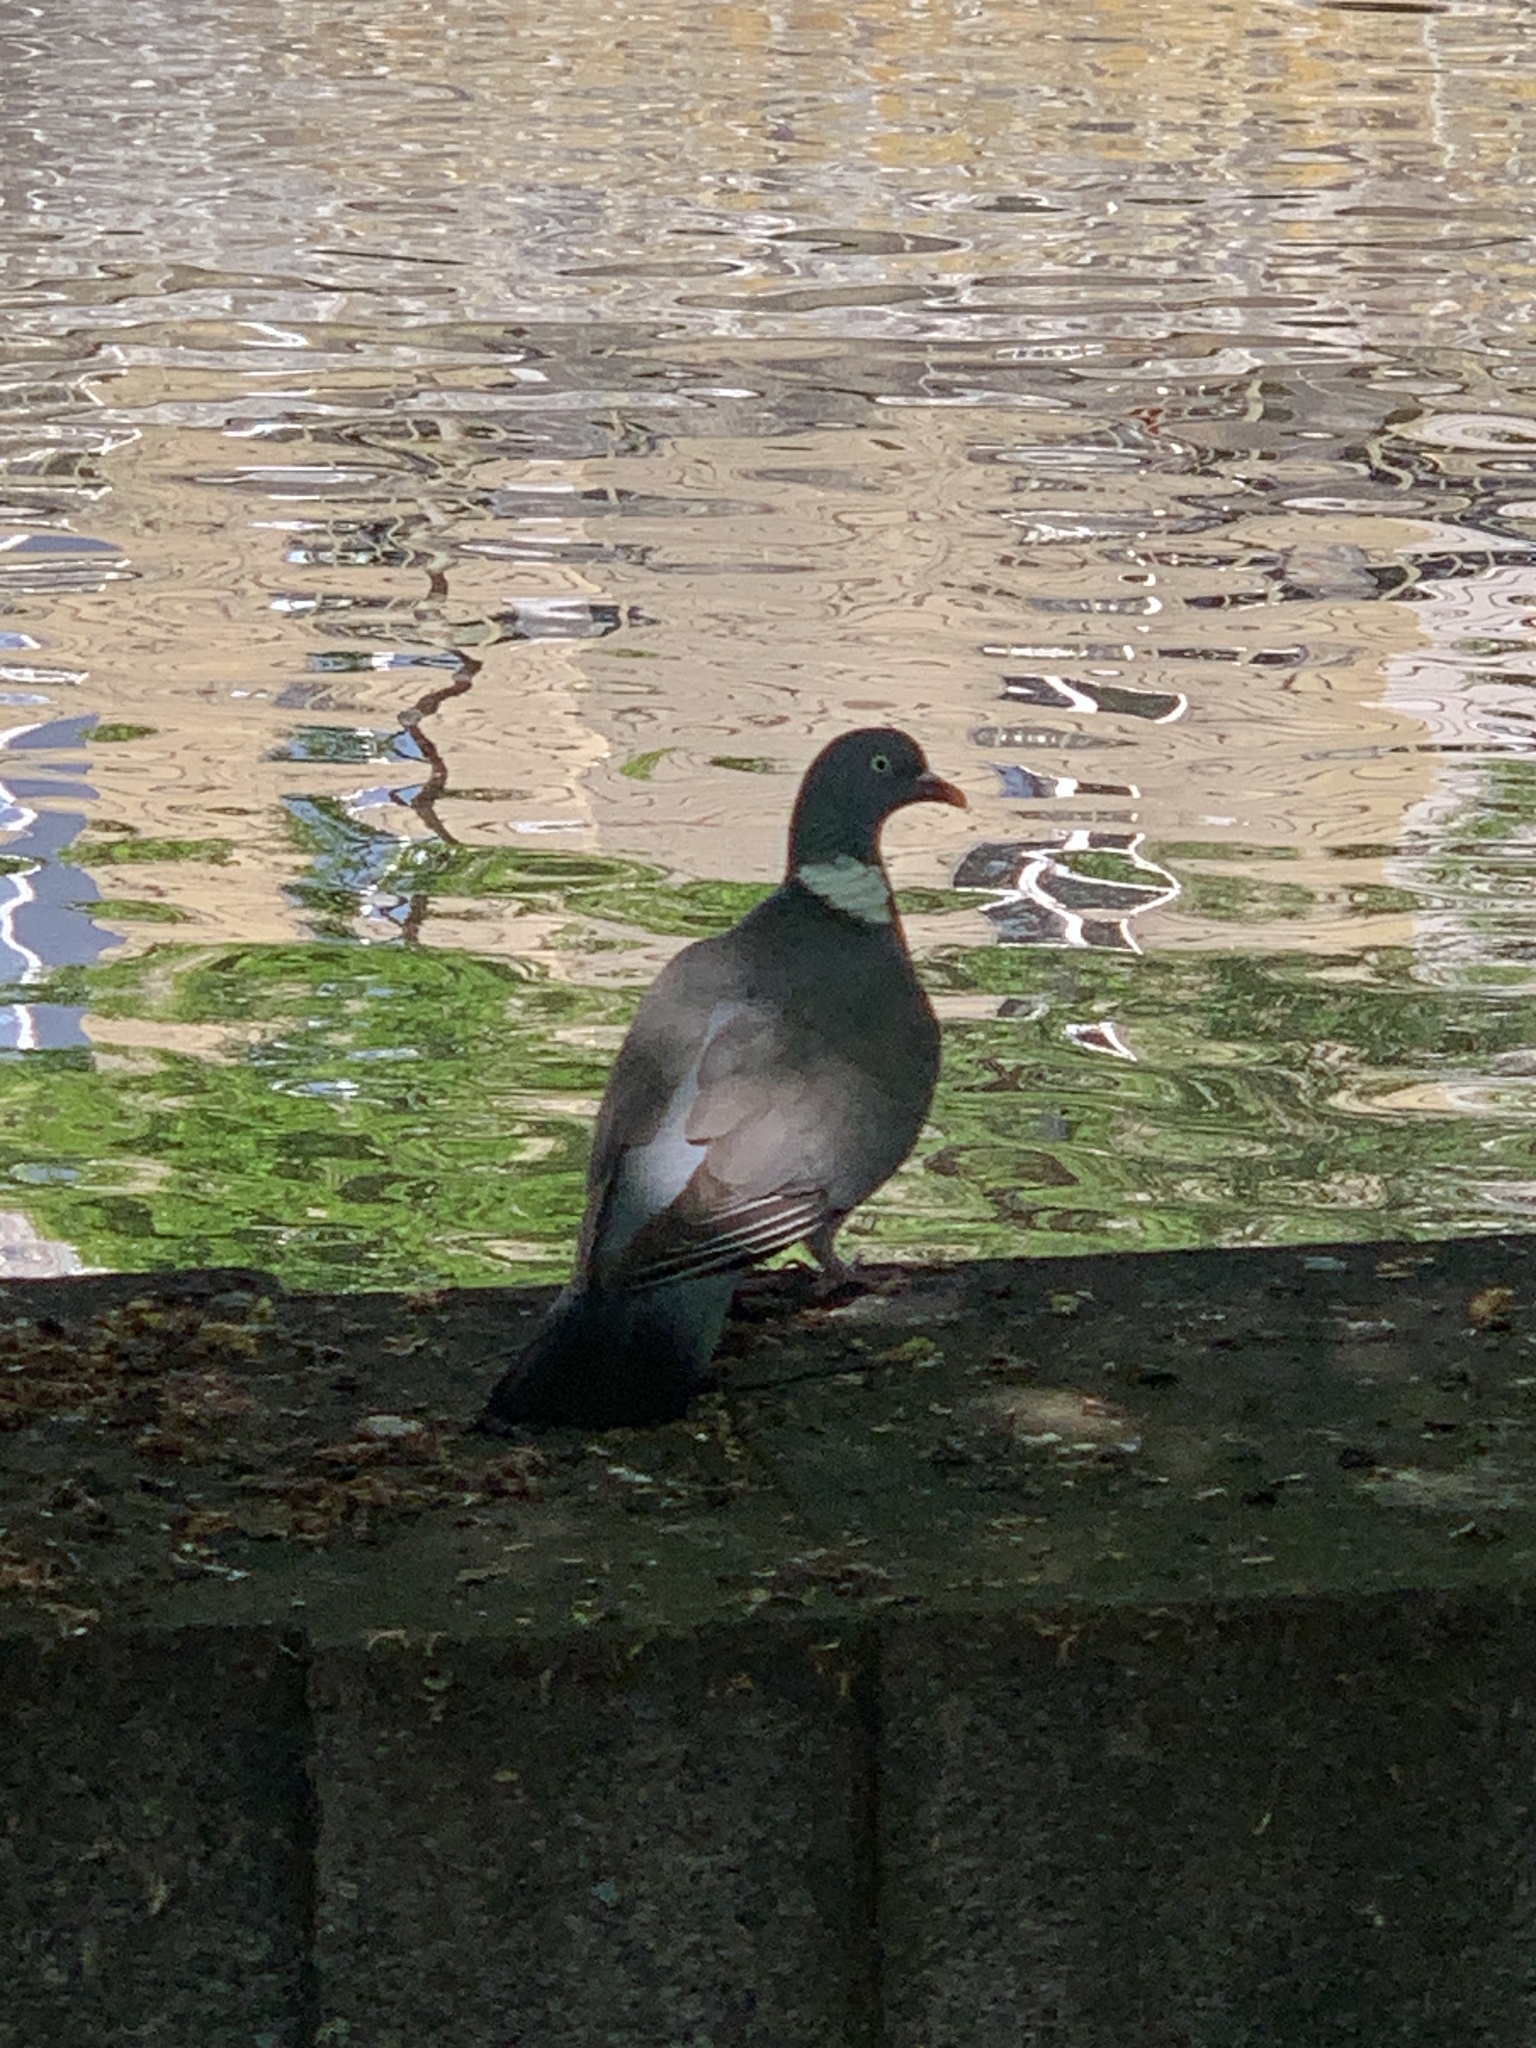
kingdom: Animalia
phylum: Chordata
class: Aves
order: Columbiformes
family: Columbidae
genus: Columba
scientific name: Columba palumbus
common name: Common wood pigeon
